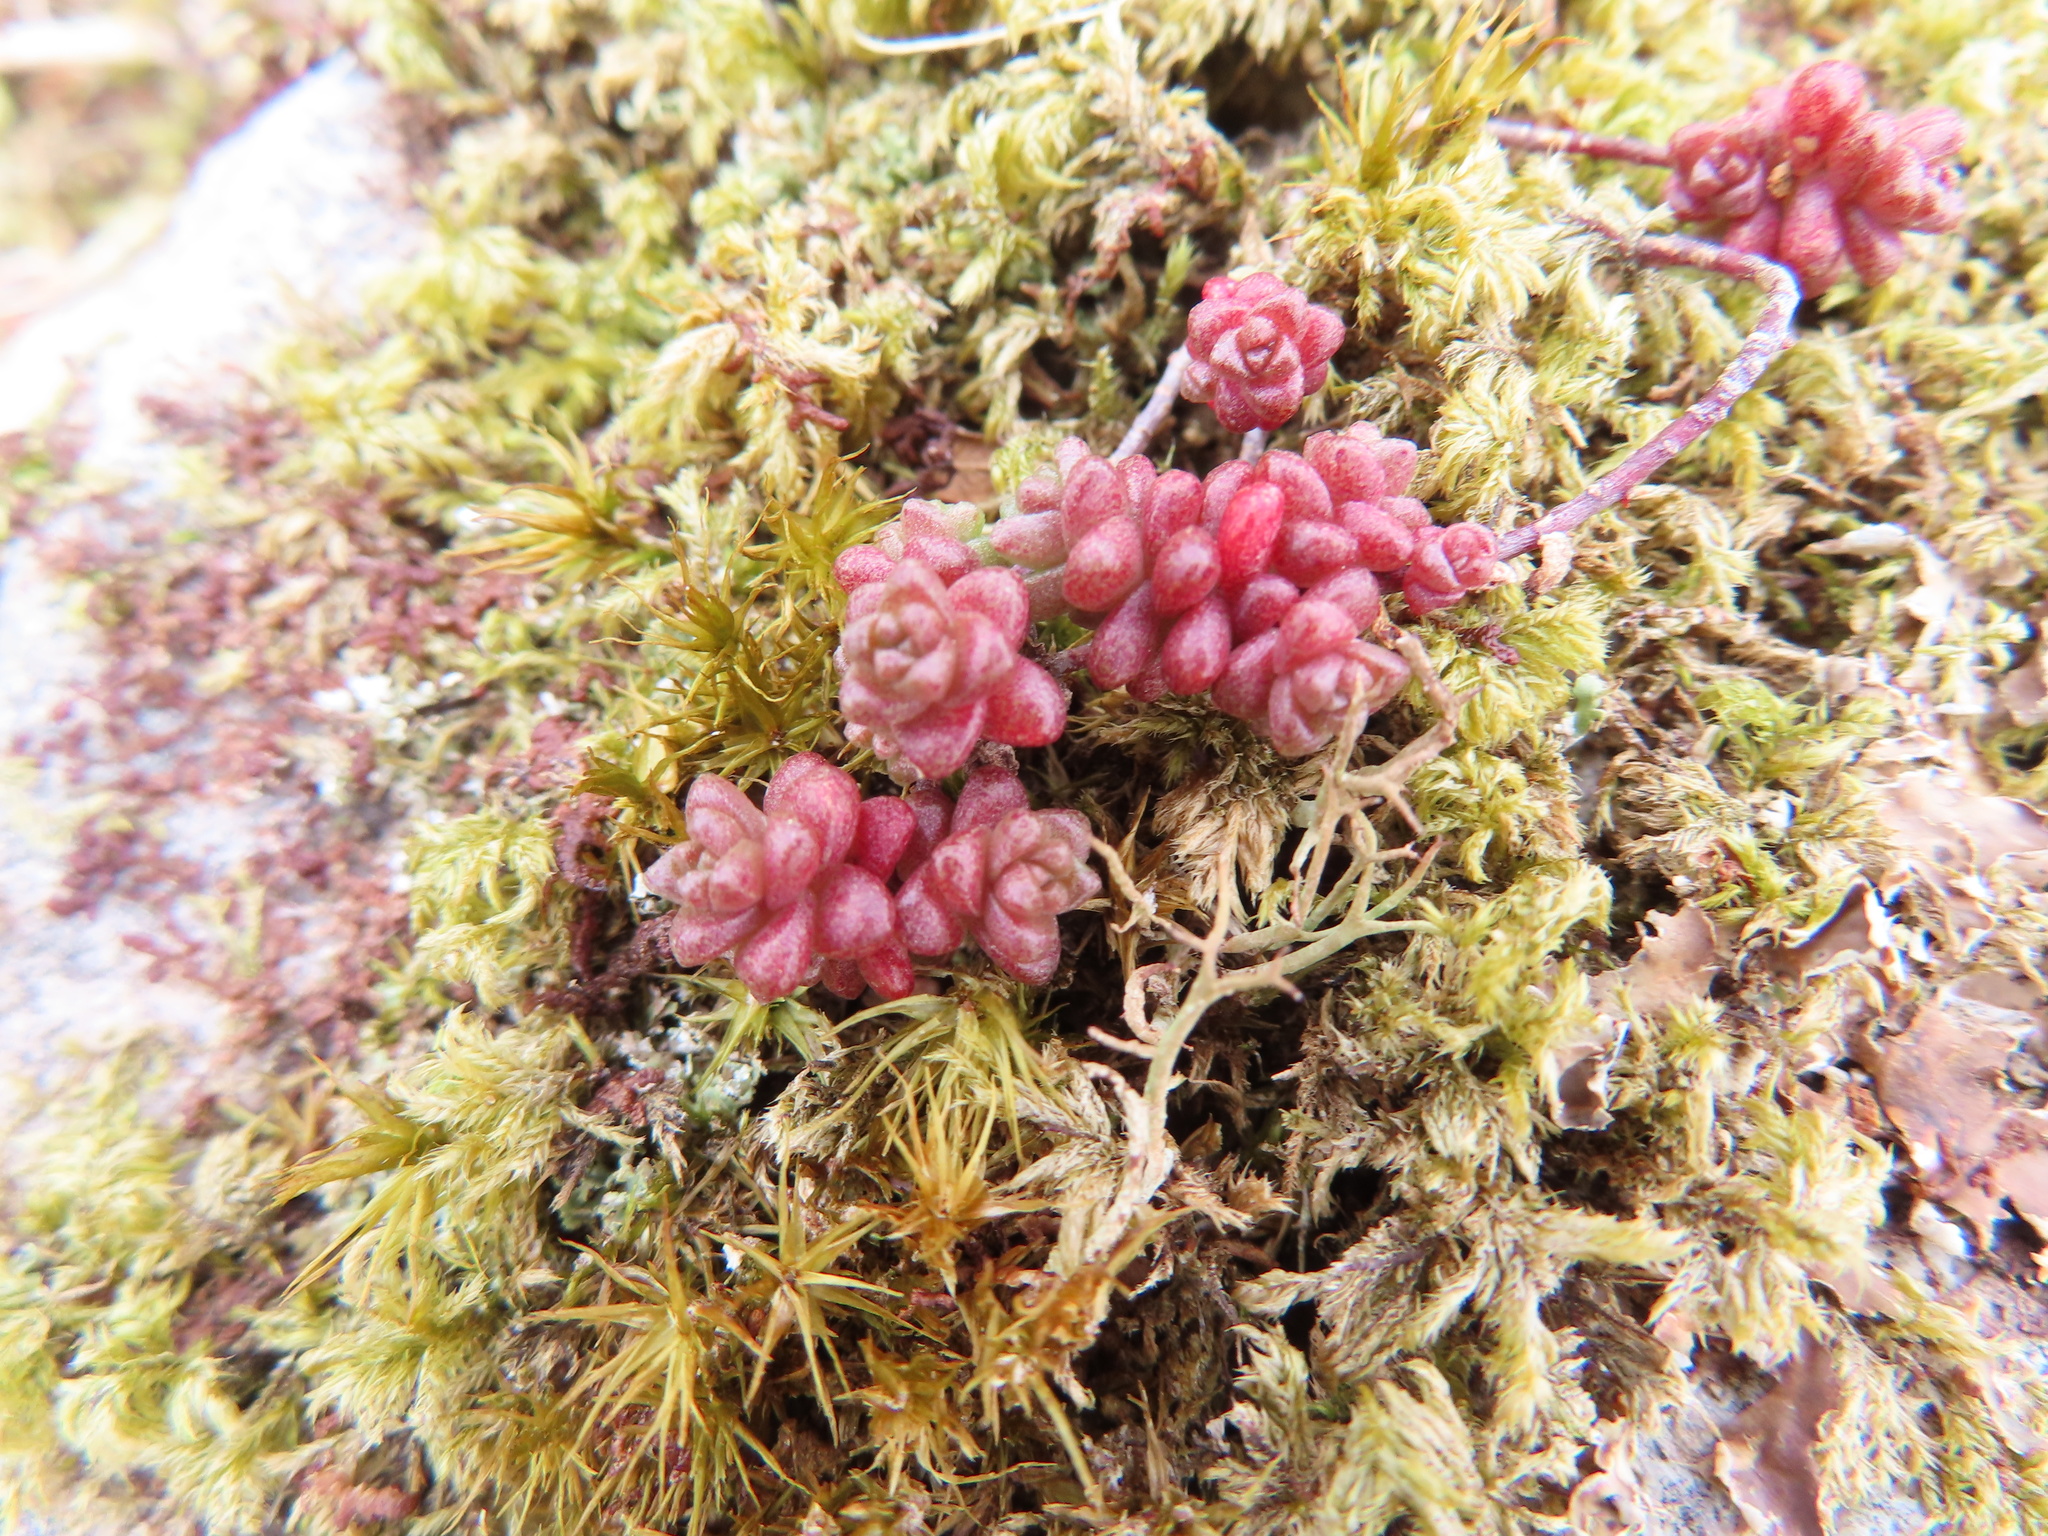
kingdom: Plantae
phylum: Tracheophyta
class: Magnoliopsida
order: Saxifragales
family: Crassulaceae
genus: Sedum
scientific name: Sedum anglicum
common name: English stonecrop
